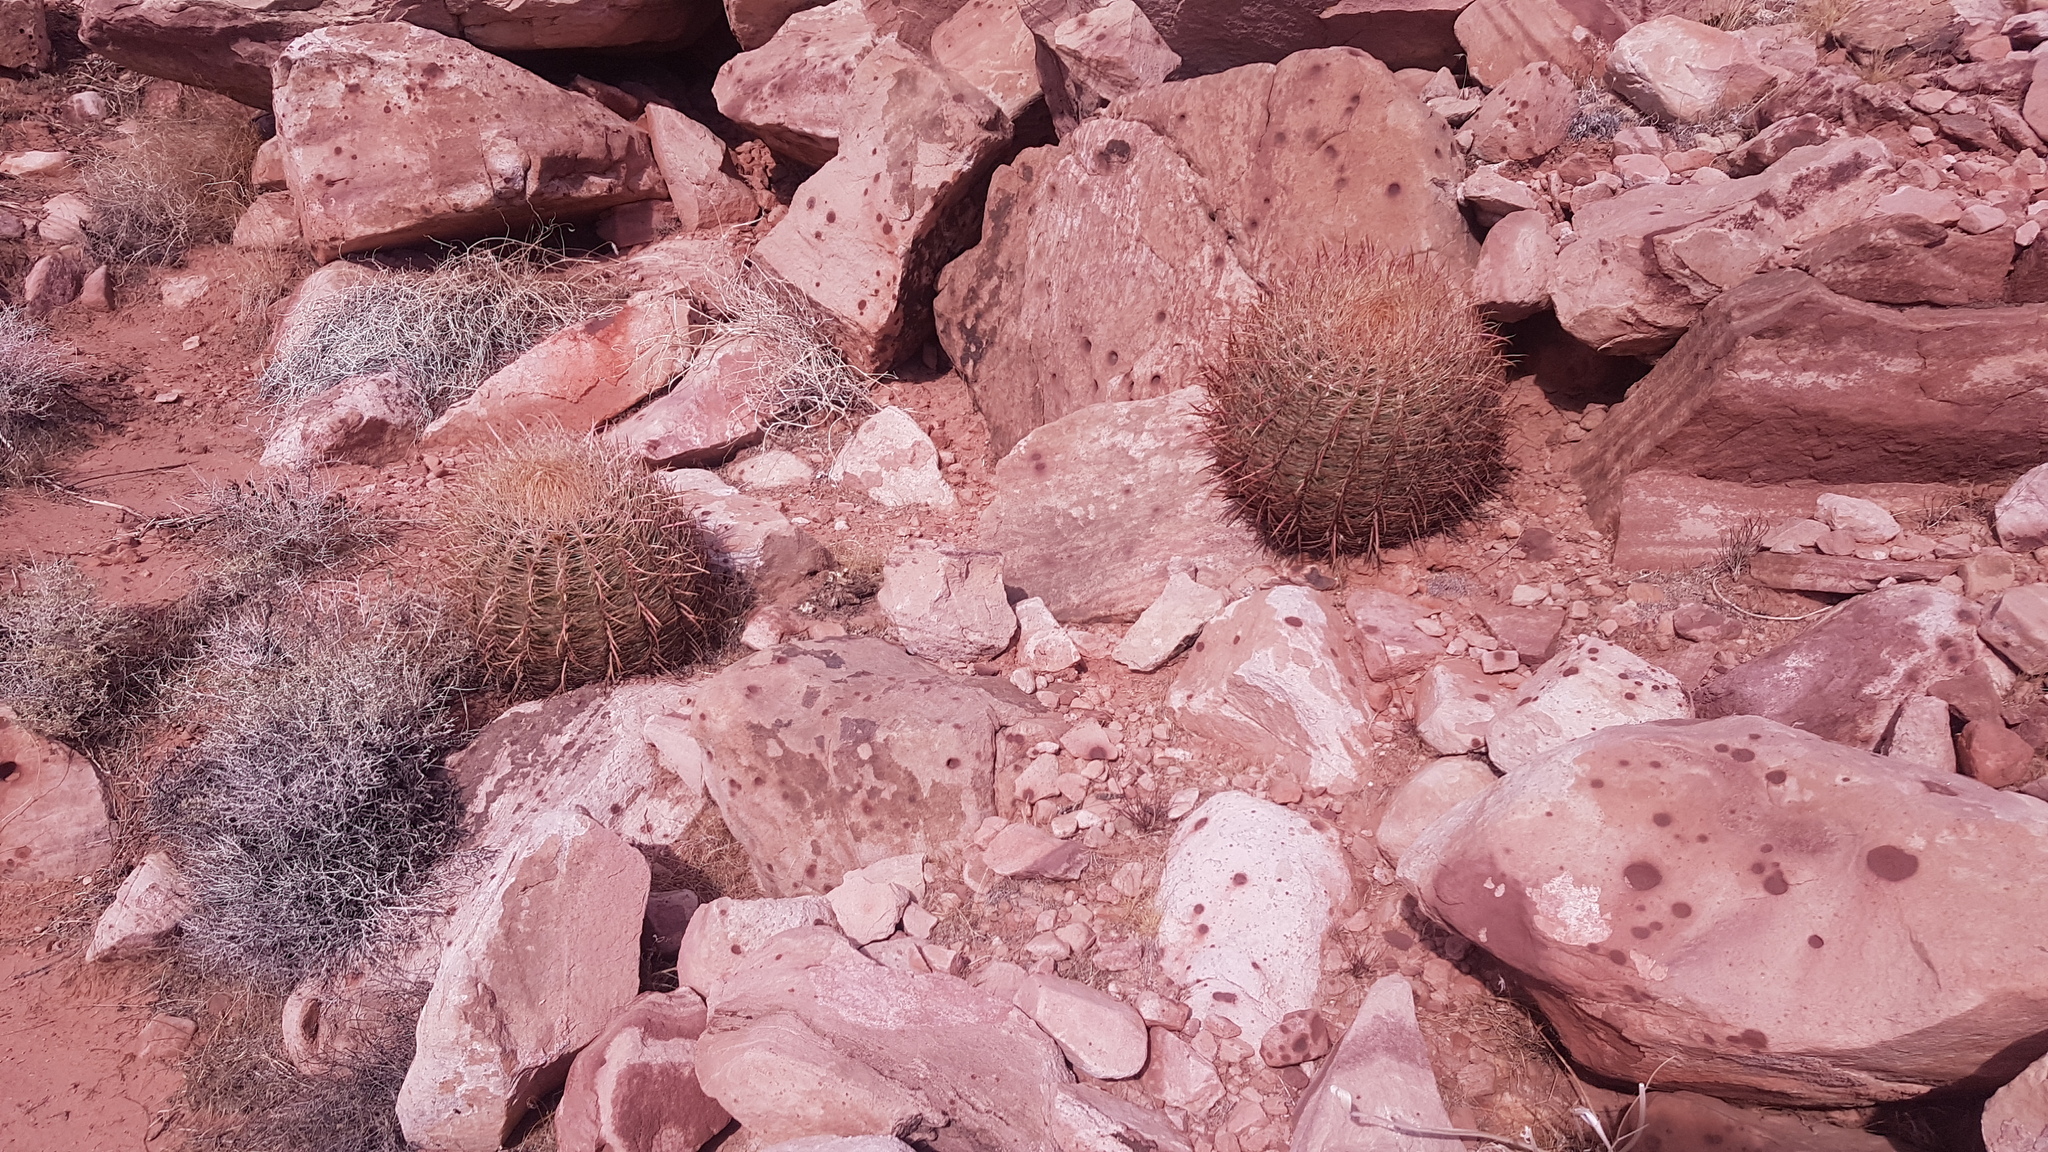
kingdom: Plantae
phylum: Tracheophyta
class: Magnoliopsida
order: Caryophyllales
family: Cactaceae
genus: Ferocactus
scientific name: Ferocactus cylindraceus
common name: California barrel cactus
